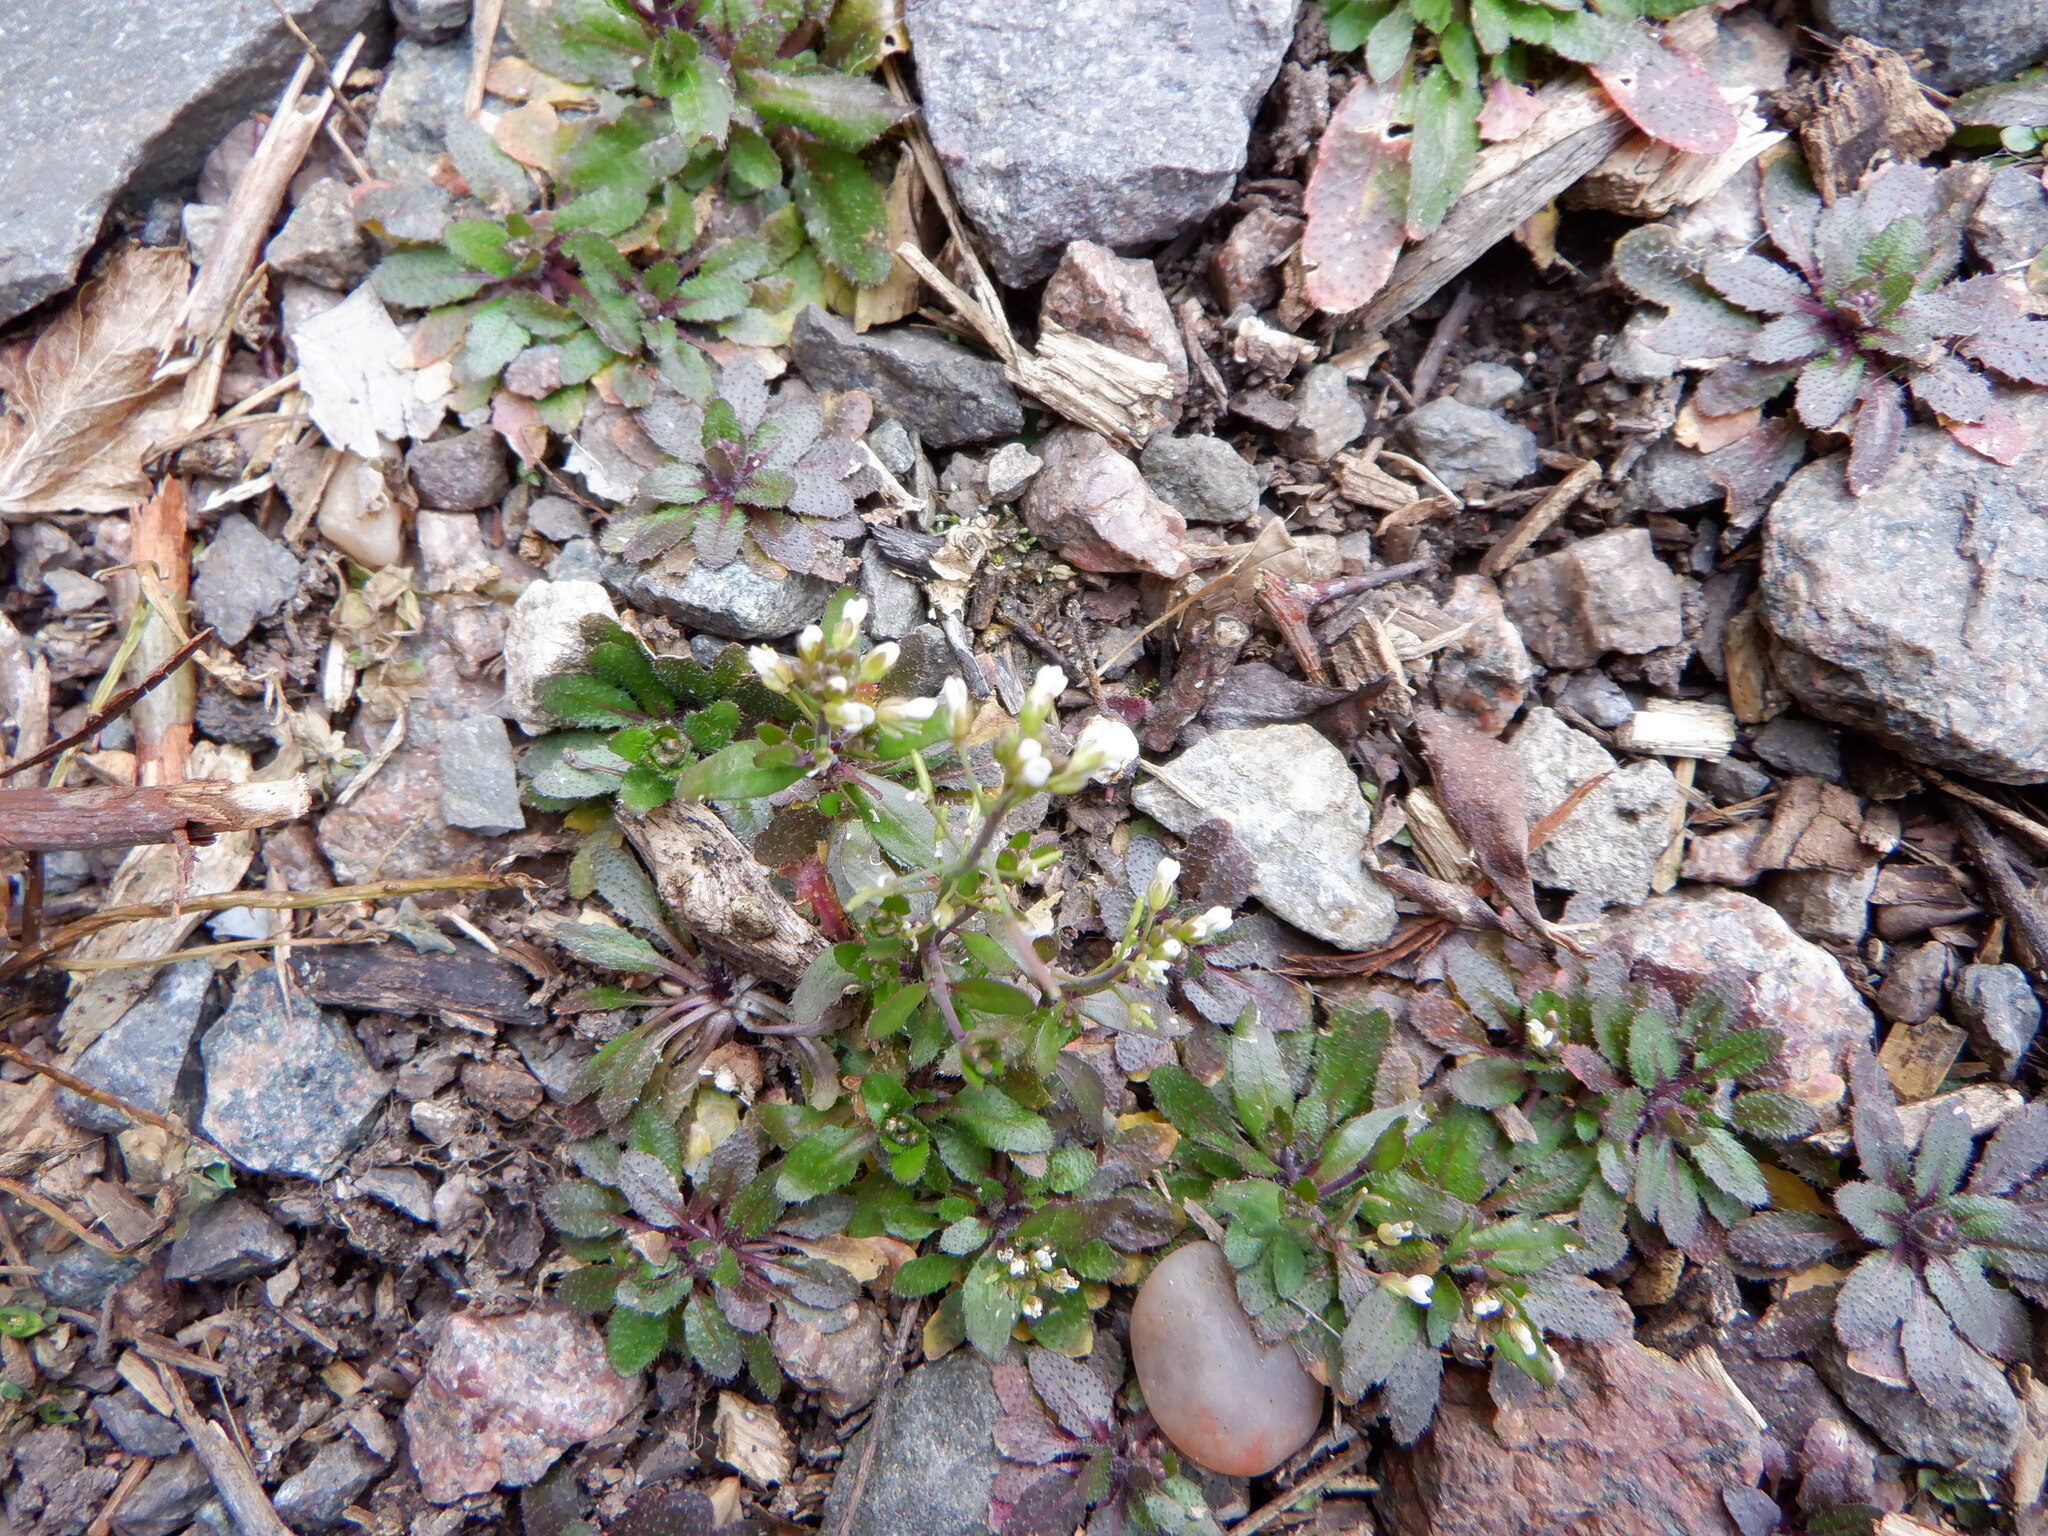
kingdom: Plantae
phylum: Tracheophyta
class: Magnoliopsida
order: Brassicales
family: Brassicaceae
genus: Arabidopsis
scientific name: Arabidopsis thaliana
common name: Thale cress
